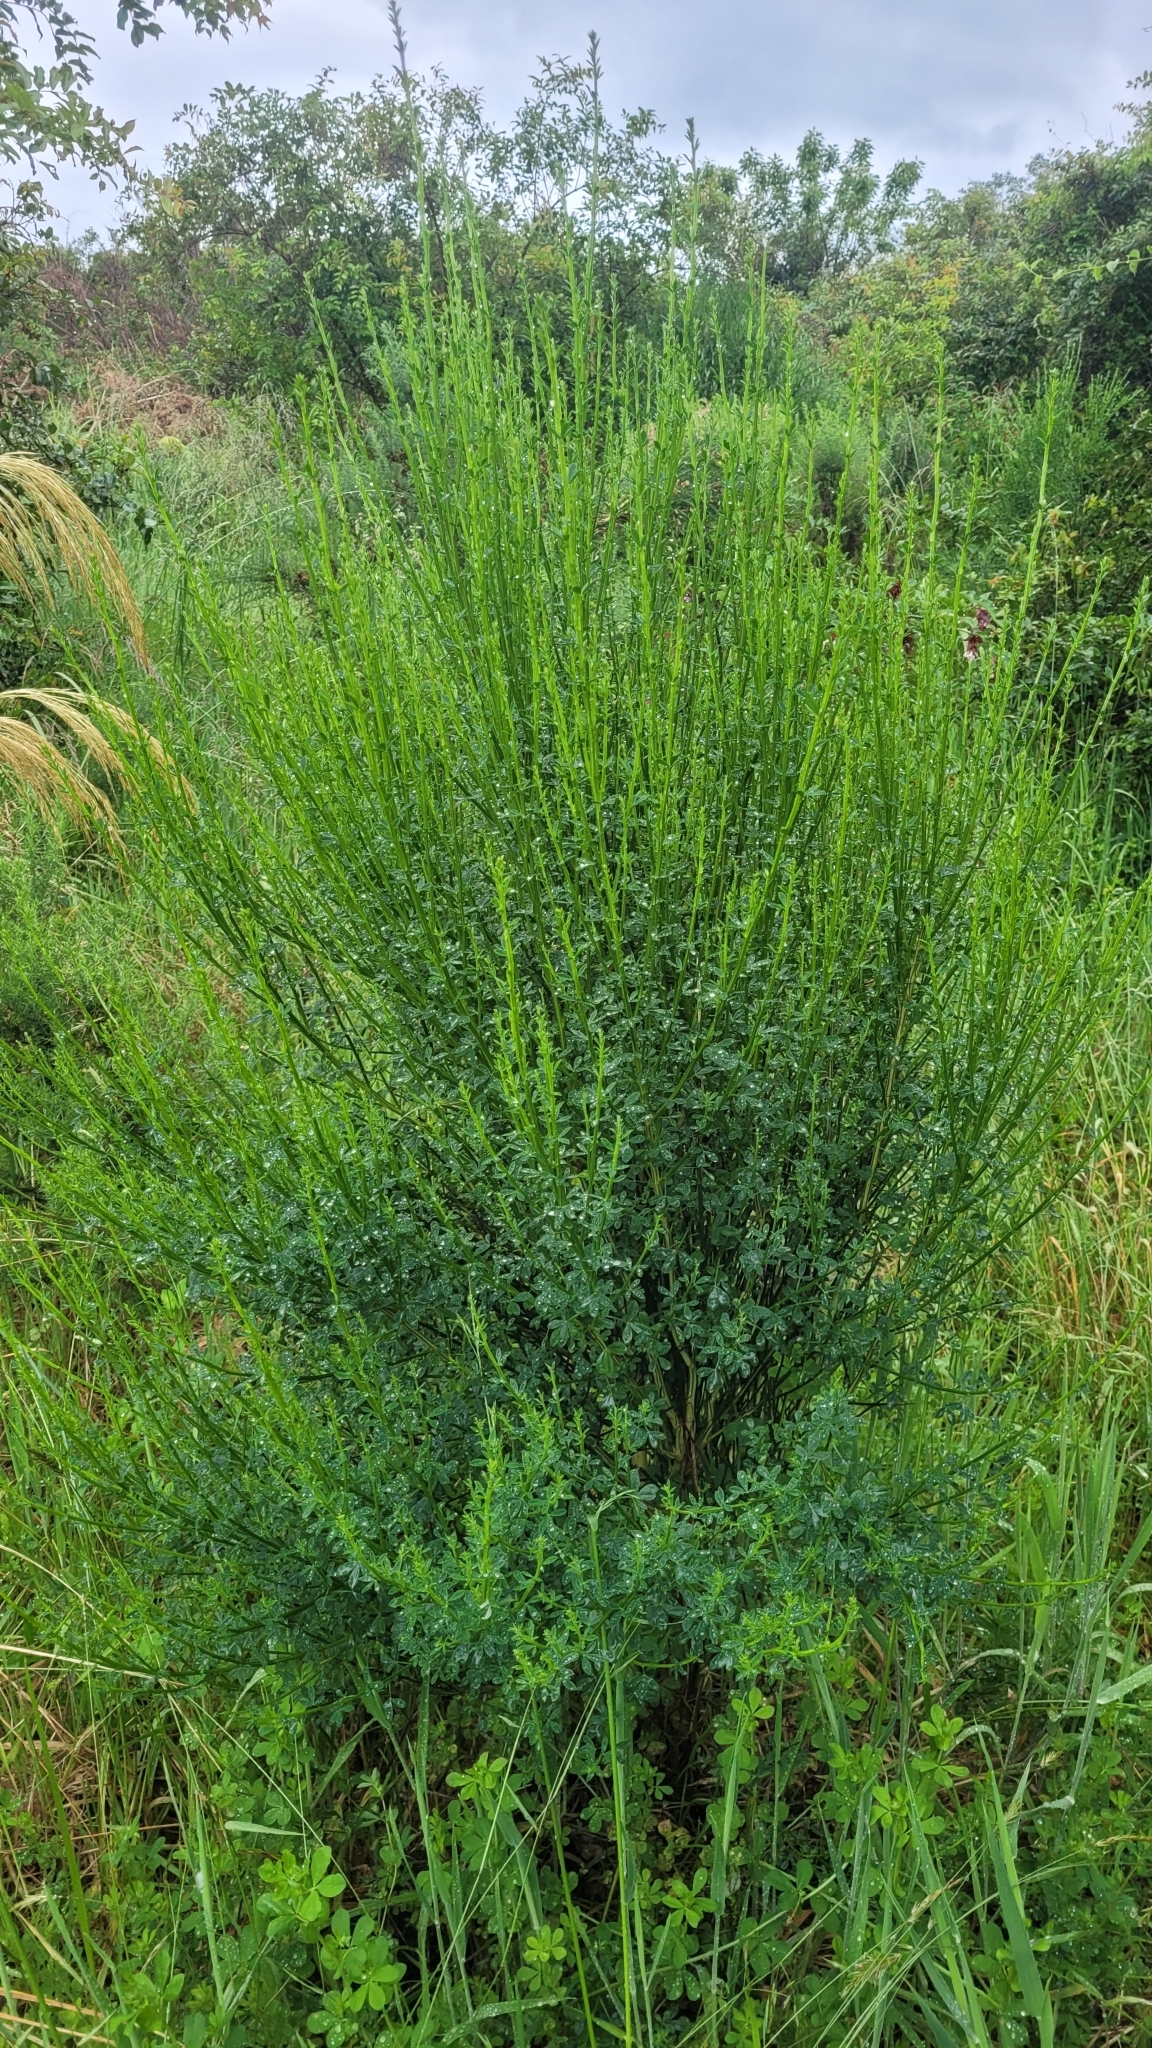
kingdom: Plantae
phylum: Tracheophyta
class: Magnoliopsida
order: Fabales
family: Fabaceae
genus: Cytisus
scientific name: Cytisus scoparius
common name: Scotch broom
